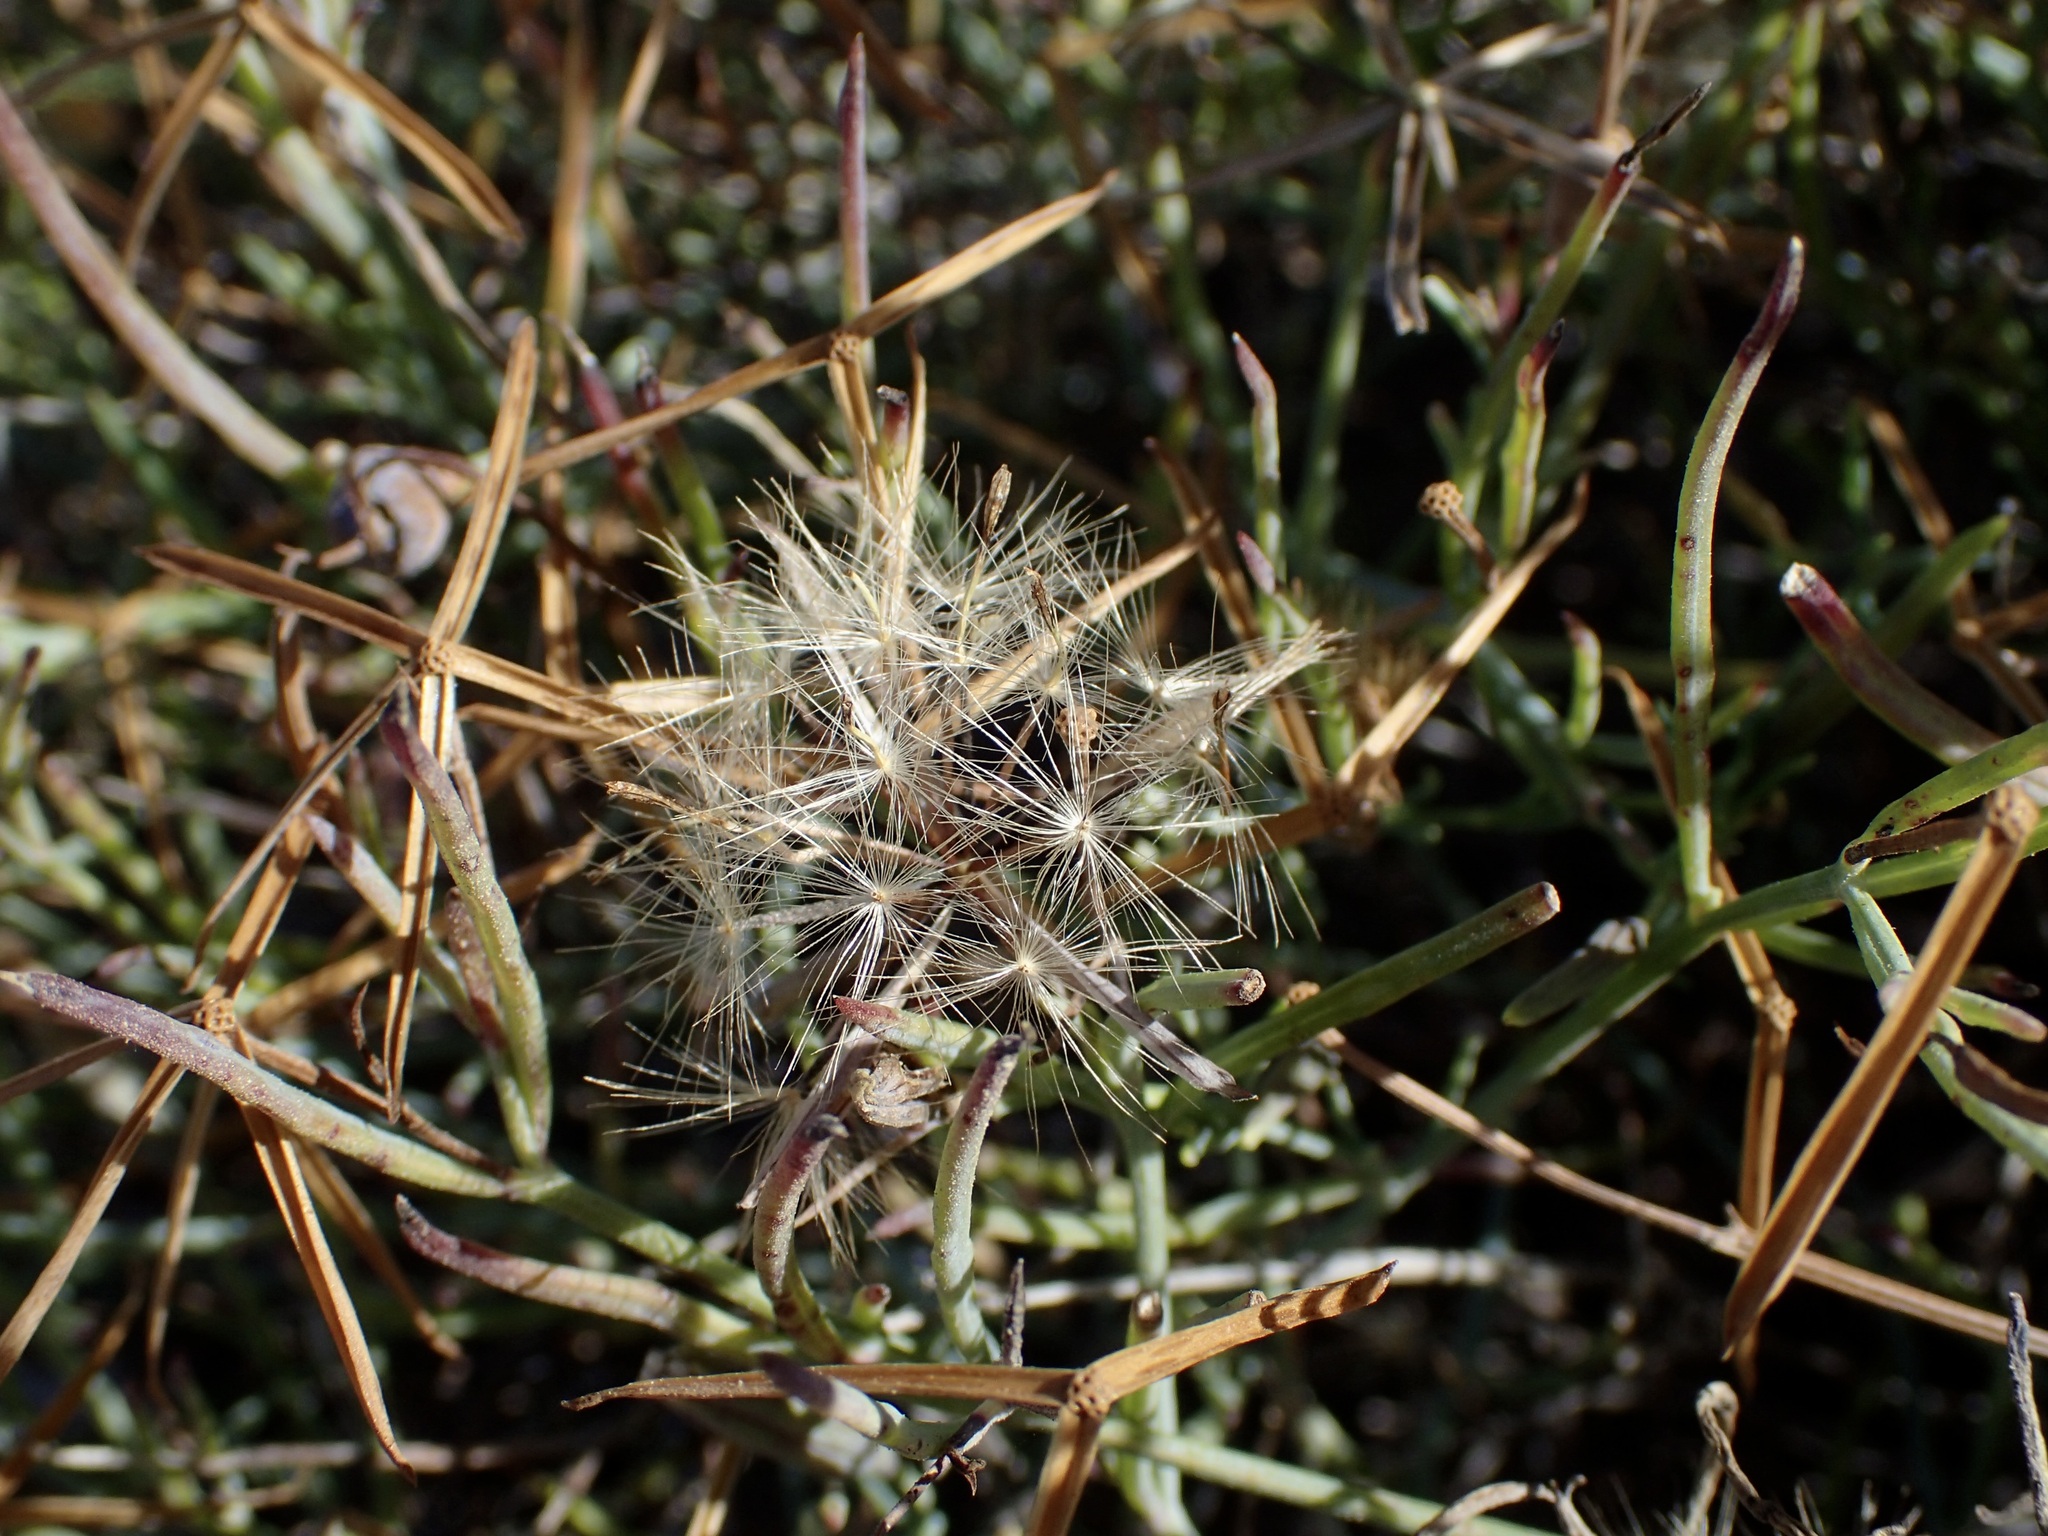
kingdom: Plantae
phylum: Tracheophyta
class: Magnoliopsida
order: Asterales
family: Asteraceae
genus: Porophyllum
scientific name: Porophyllum gracile
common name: Odora
